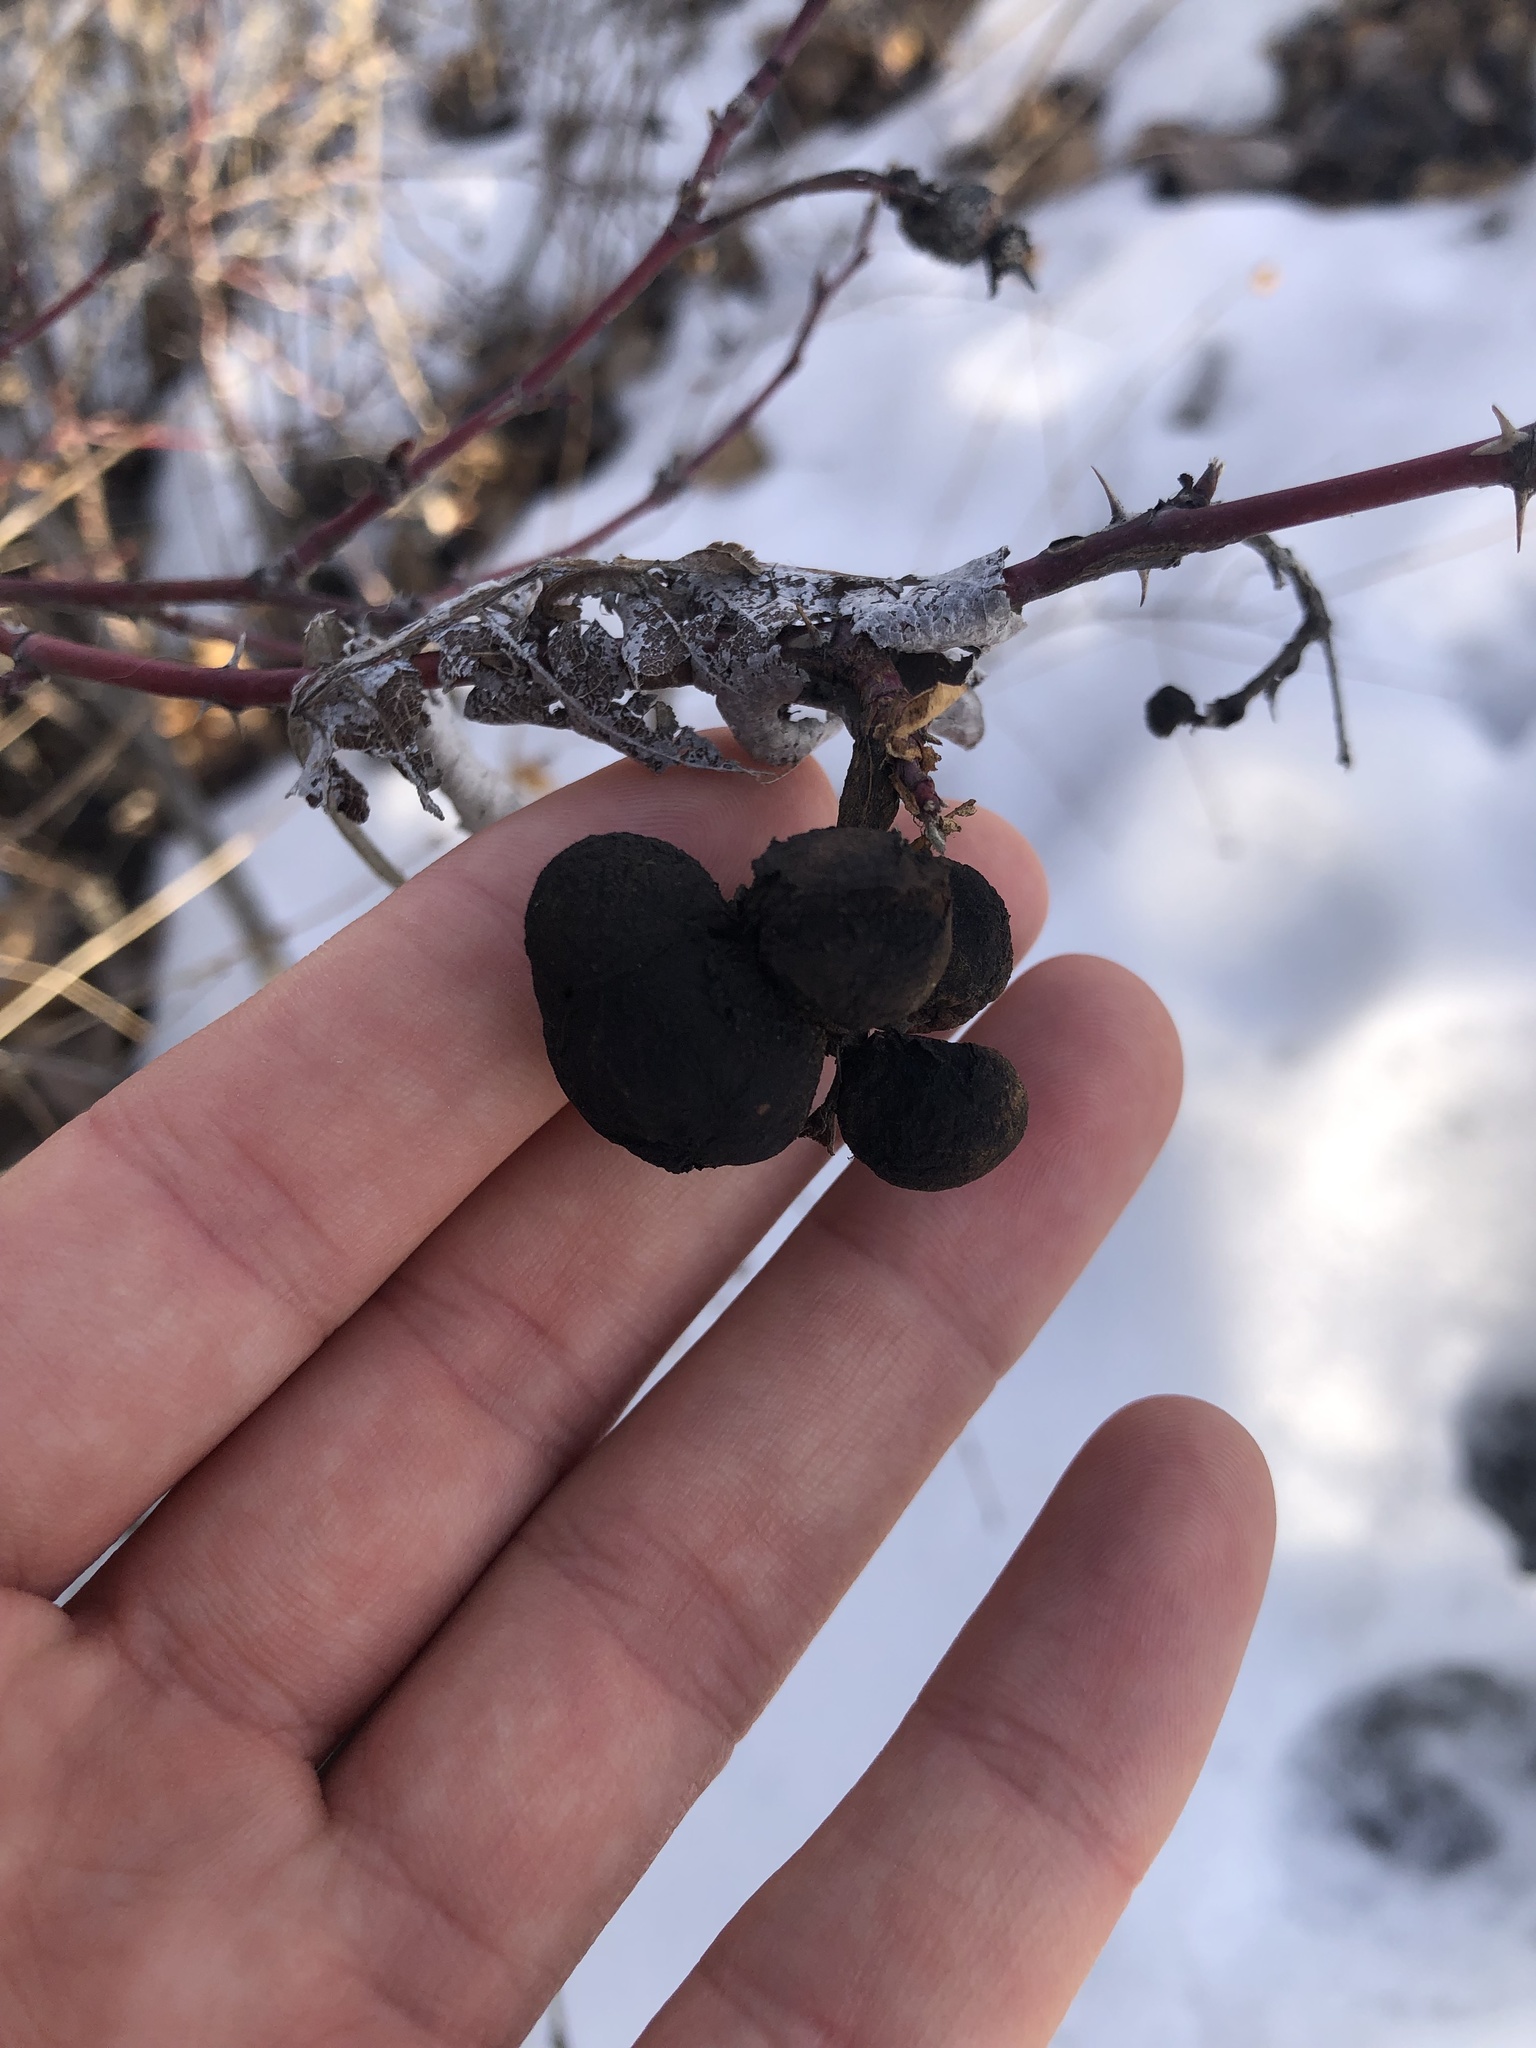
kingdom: Animalia
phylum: Arthropoda
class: Insecta
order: Hymenoptera
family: Cynipidae
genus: Diplolepis
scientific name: Diplolepis variabilis
